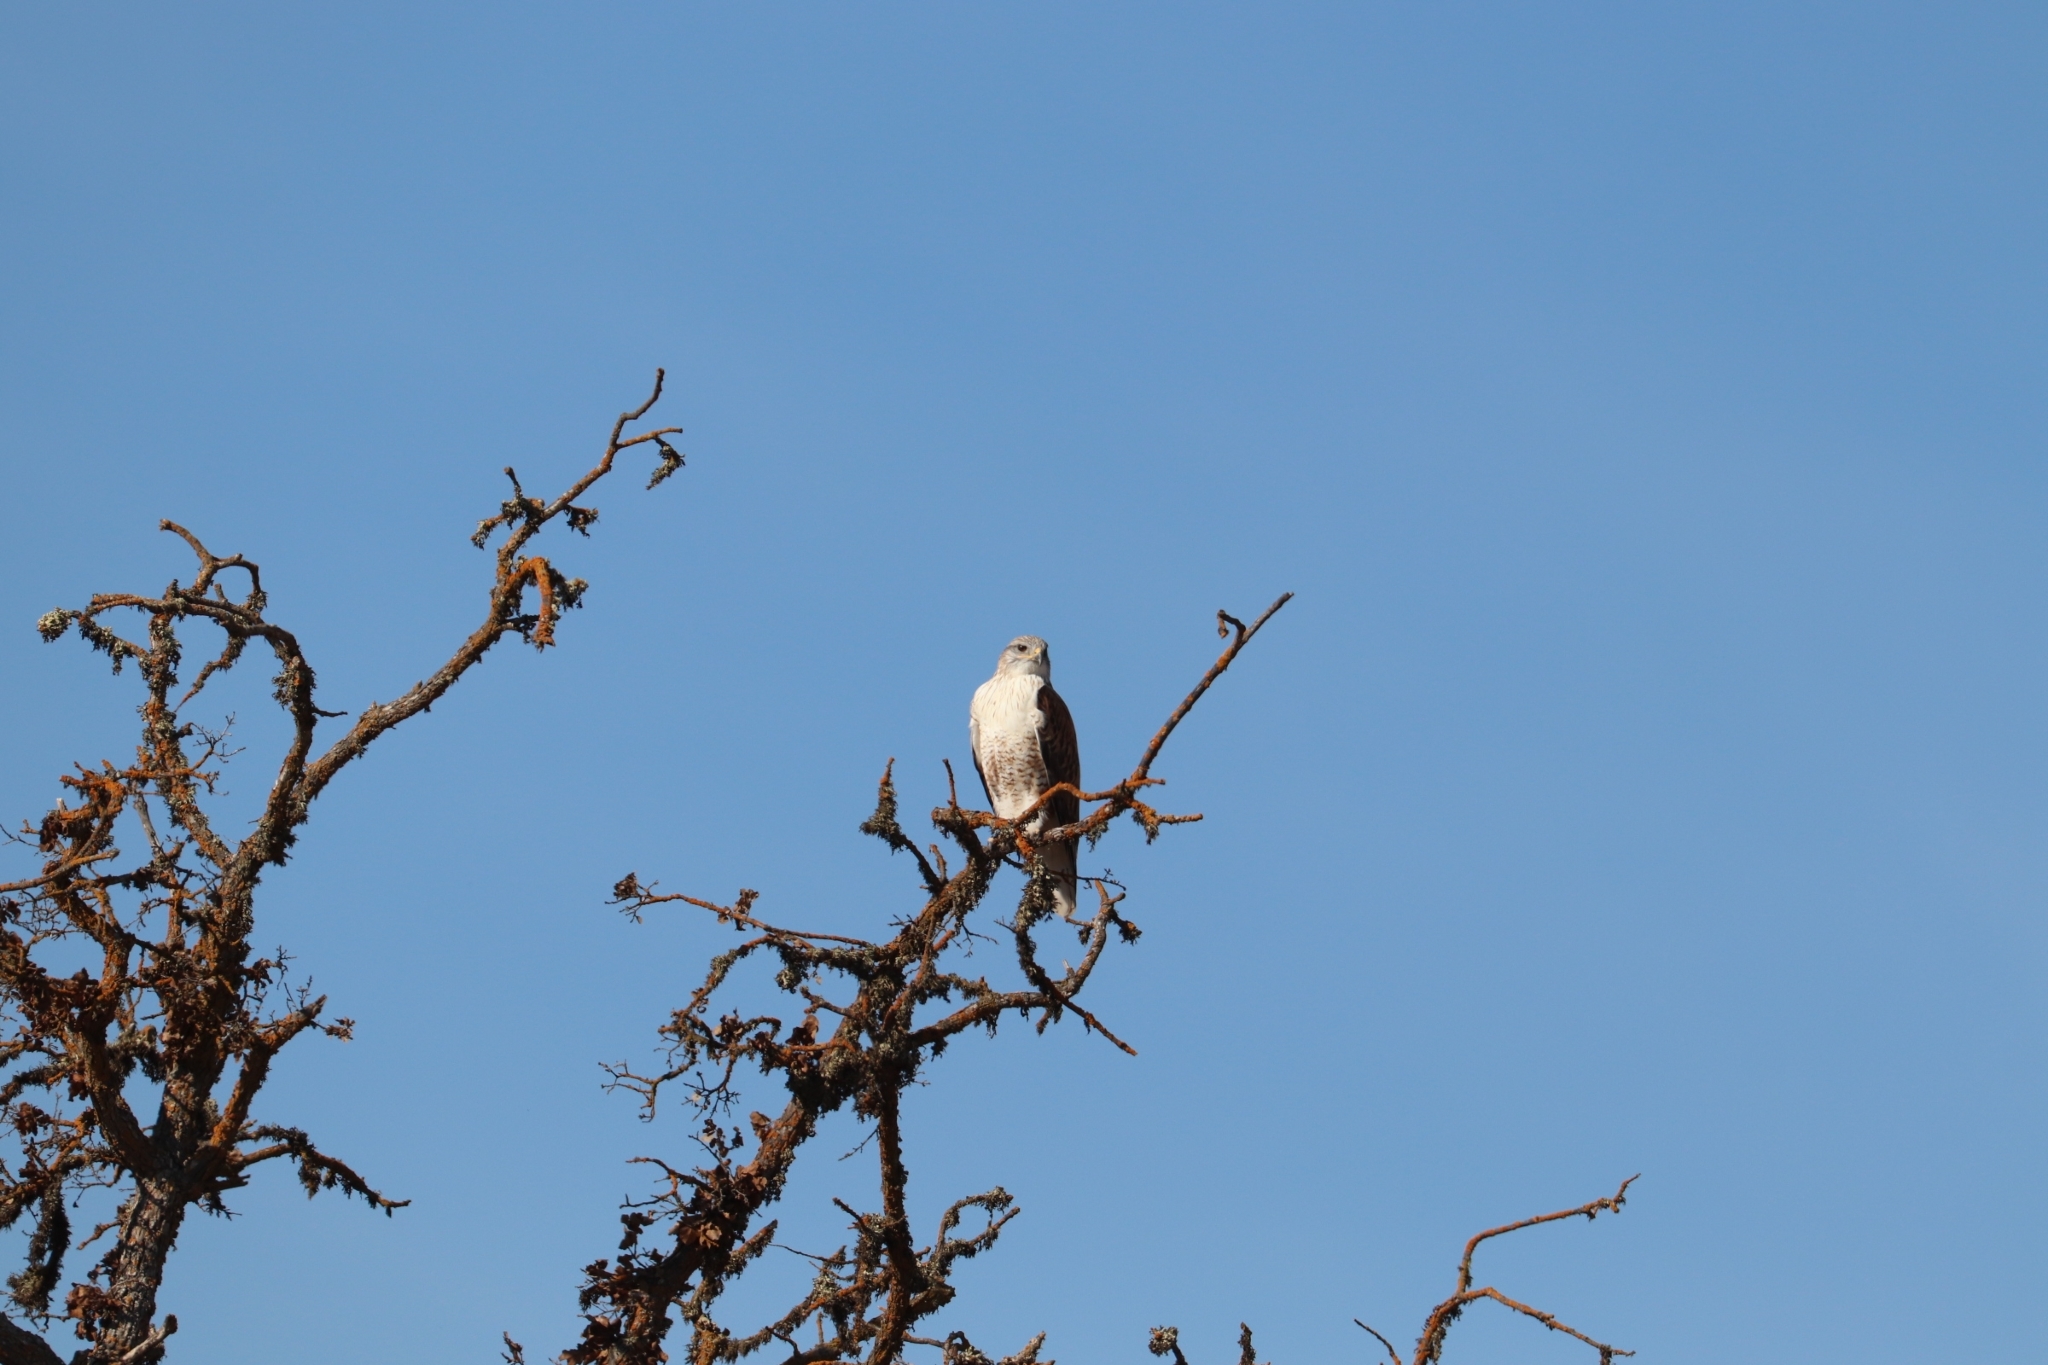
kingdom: Animalia
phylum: Chordata
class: Aves
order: Accipitriformes
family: Accipitridae
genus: Buteo
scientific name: Buteo regalis
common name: Ferruginous hawk
